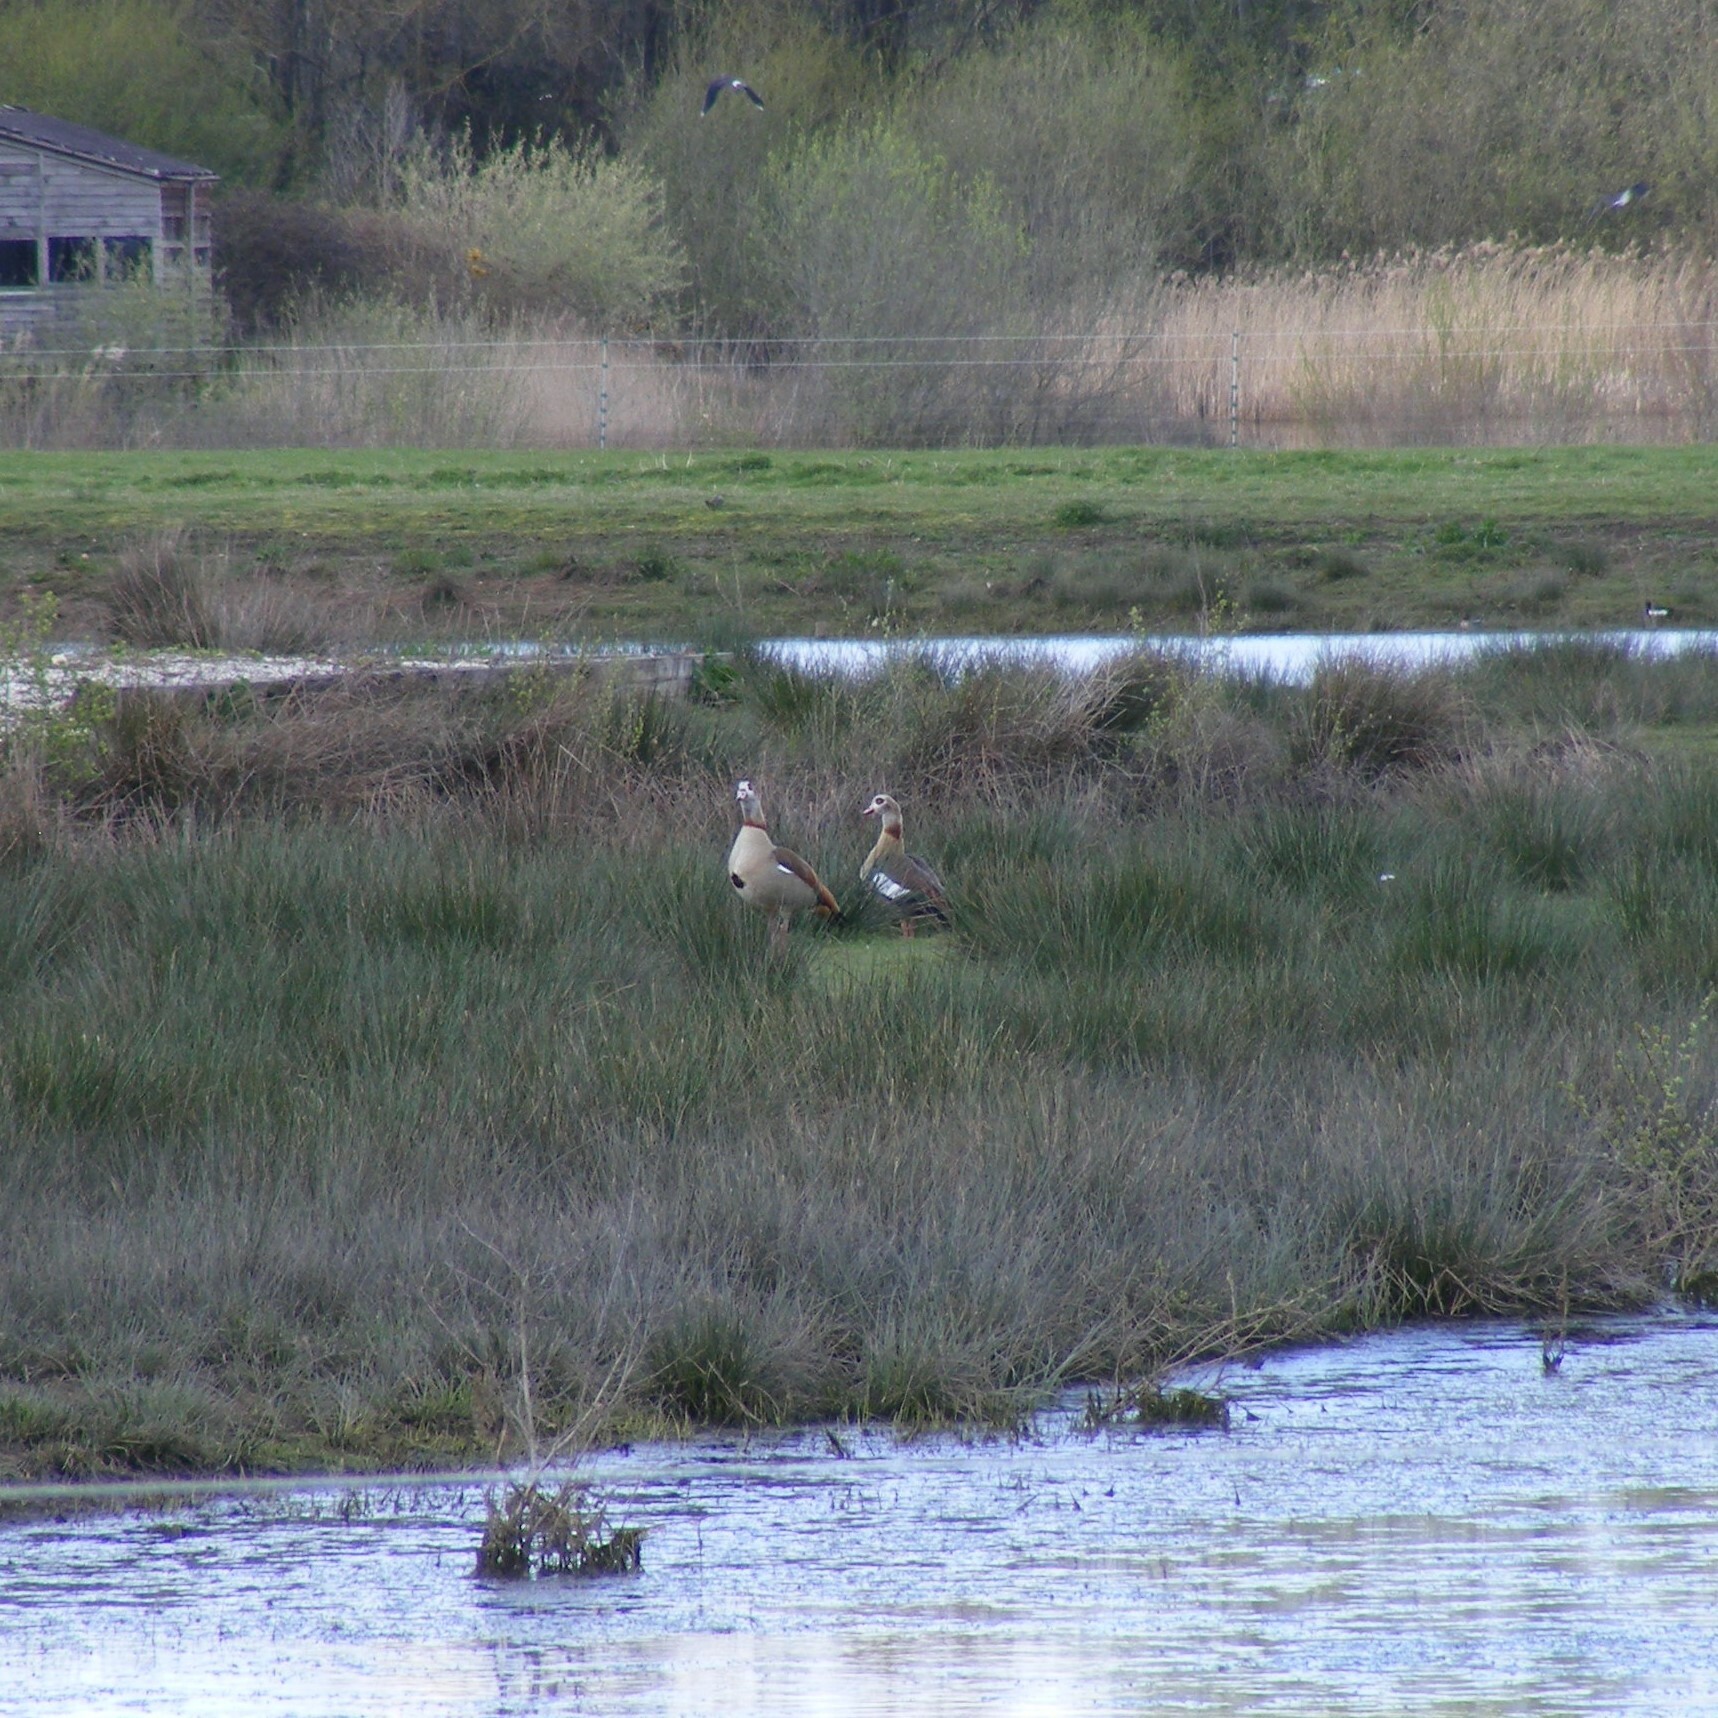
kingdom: Animalia
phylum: Chordata
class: Aves
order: Anseriformes
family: Anatidae
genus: Alopochen
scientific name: Alopochen aegyptiaca
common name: Egyptian goose
